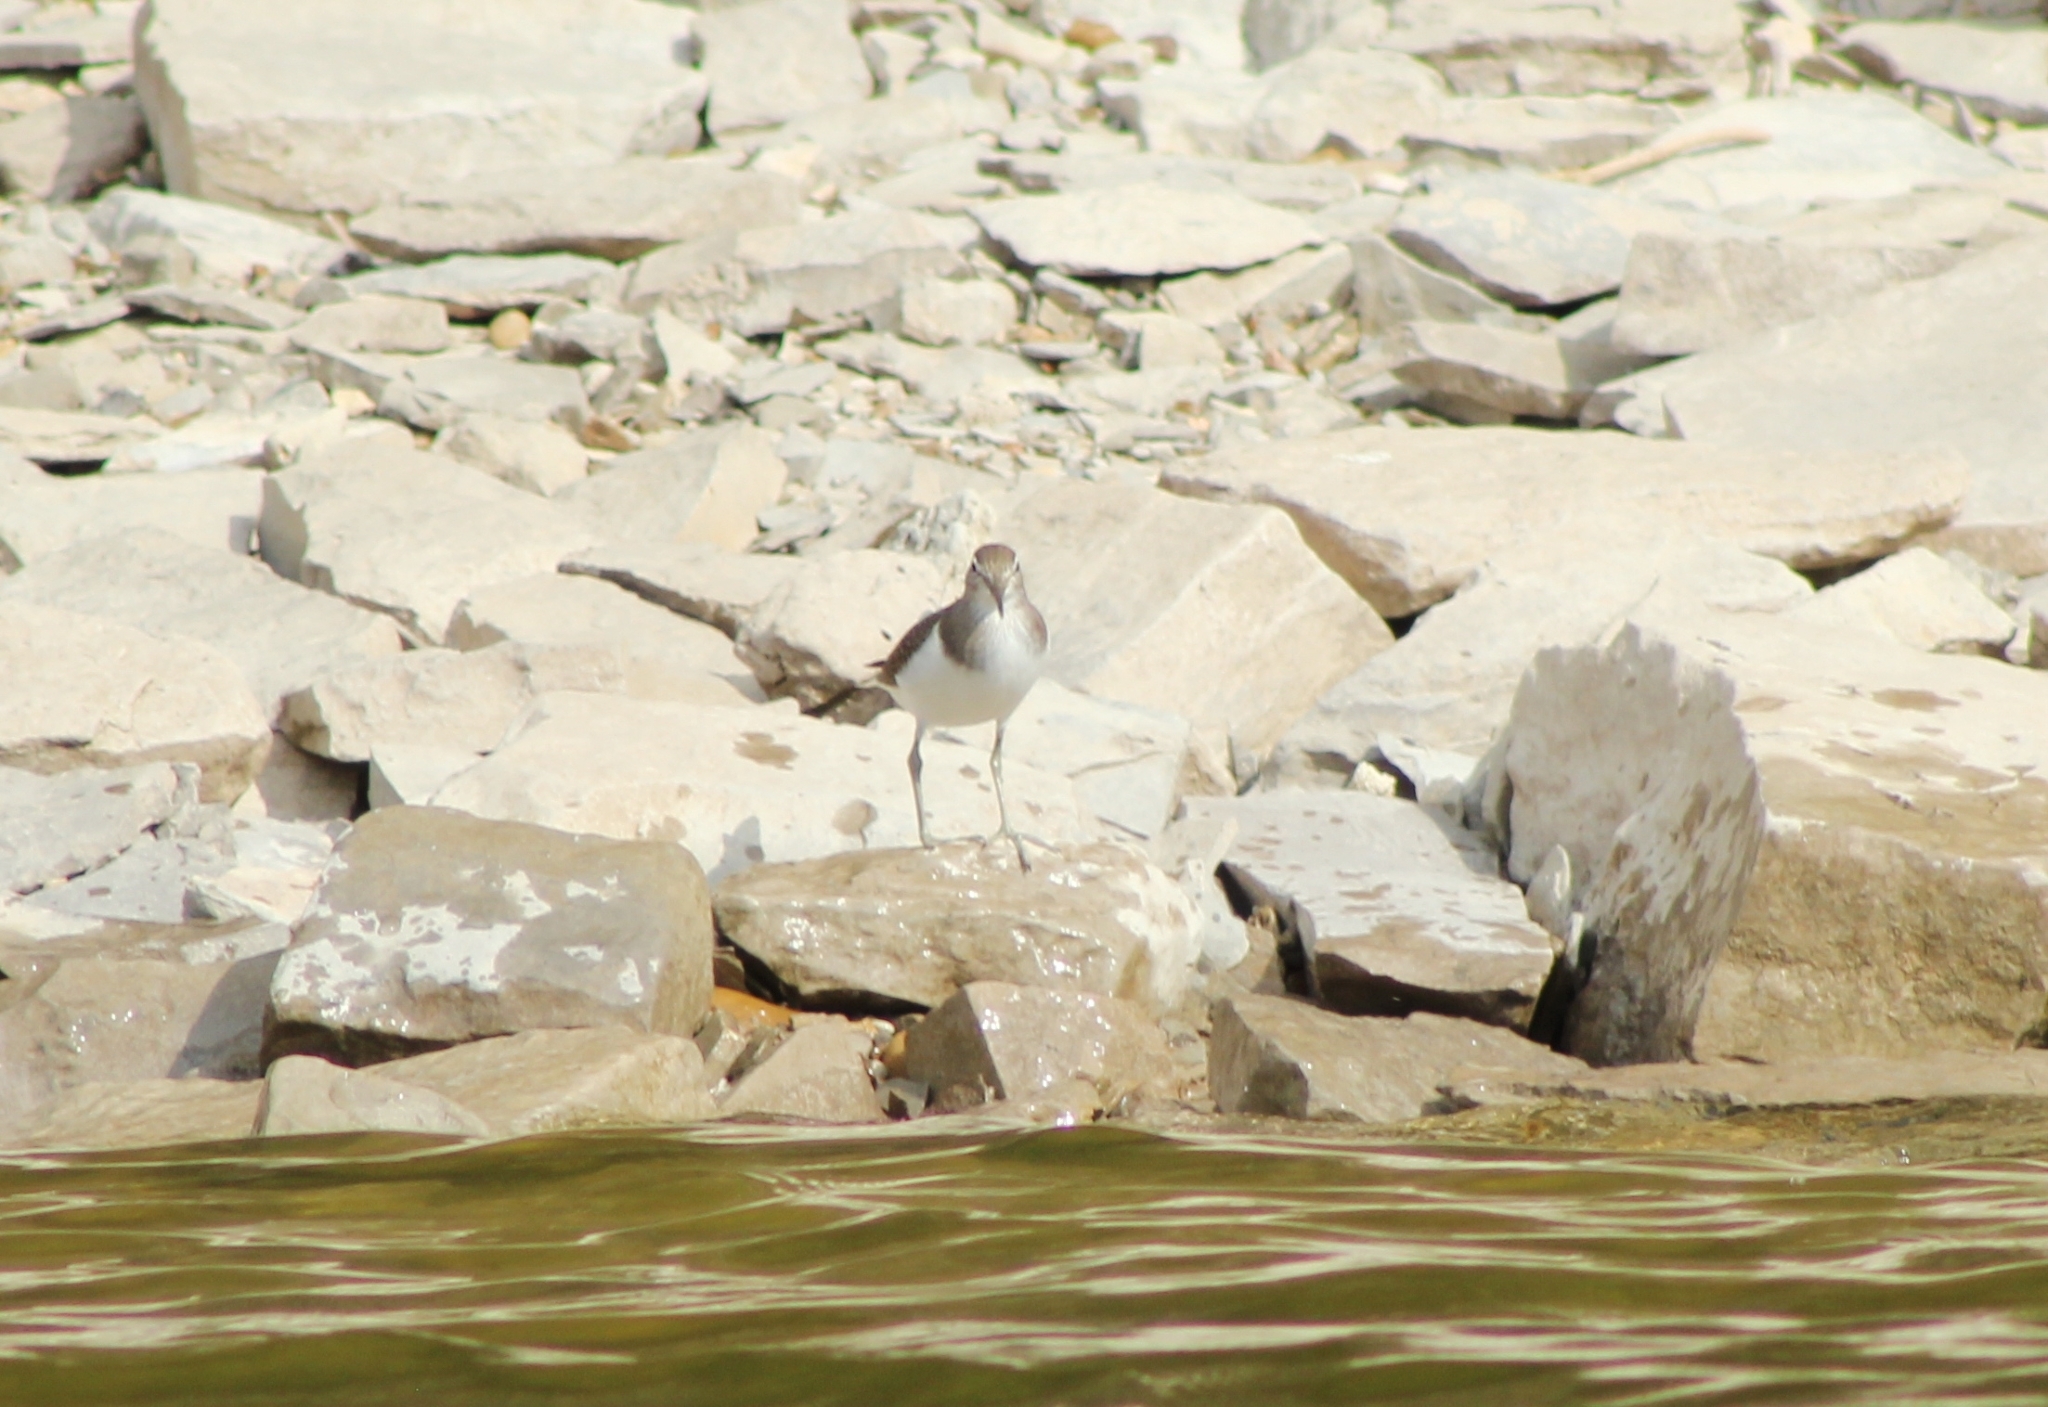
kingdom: Animalia
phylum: Chordata
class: Aves
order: Charadriiformes
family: Scolopacidae
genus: Actitis
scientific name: Actitis hypoleucos
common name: Common sandpiper
